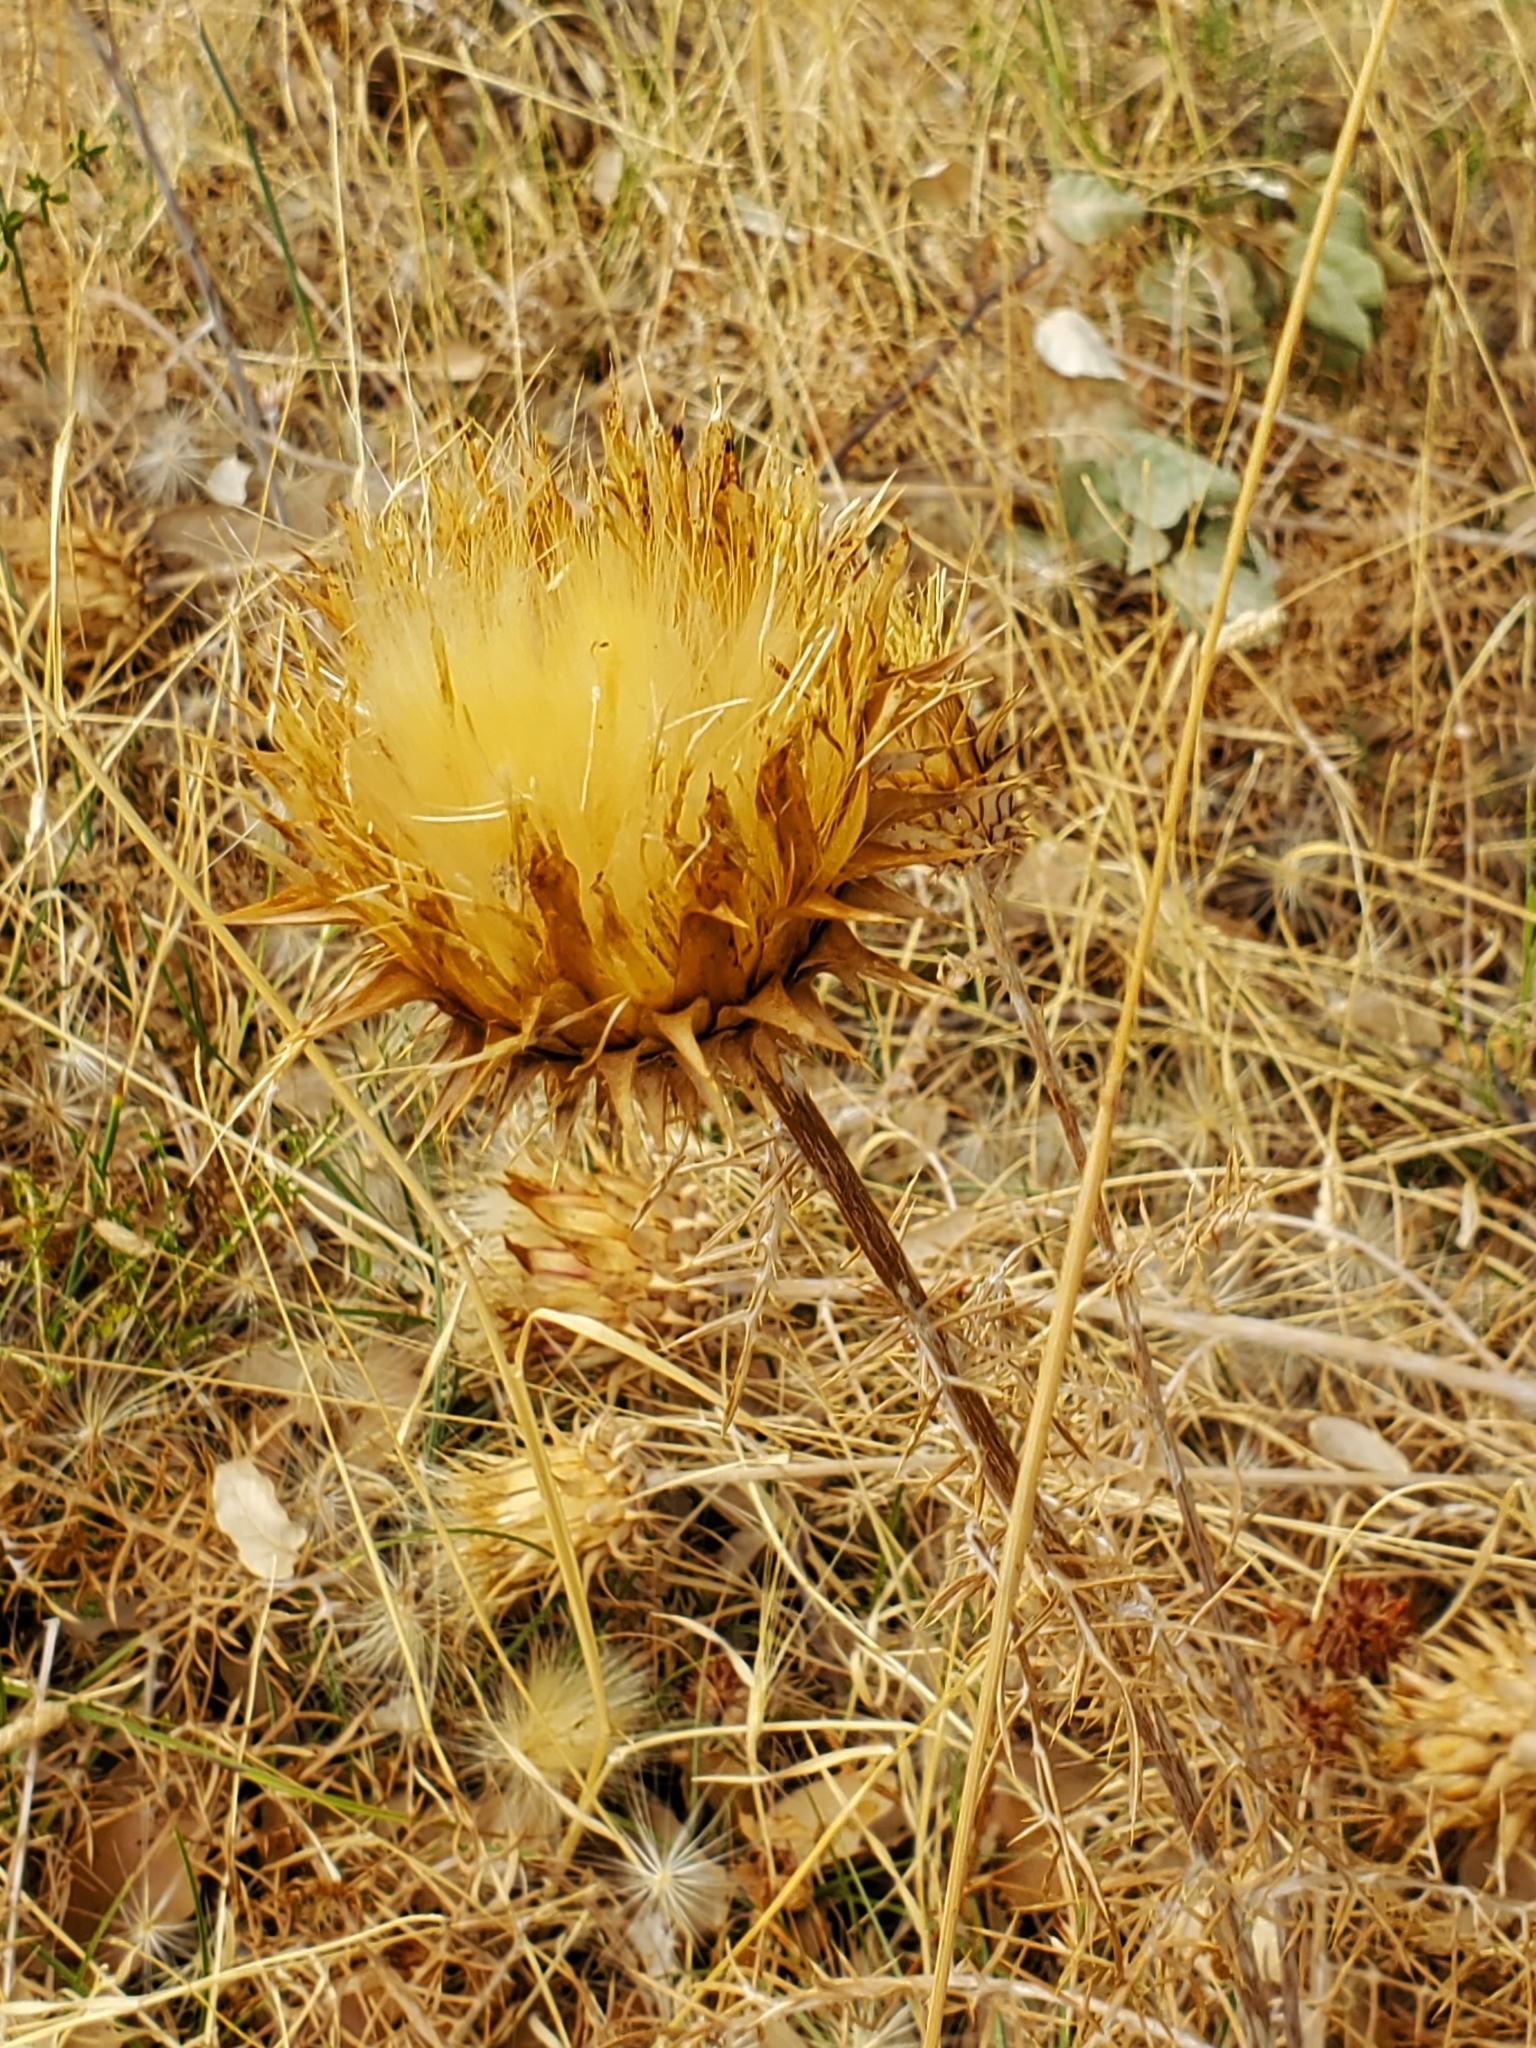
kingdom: Plantae
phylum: Tracheophyta
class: Magnoliopsida
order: Asterales
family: Asteraceae
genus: Cynara
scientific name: Cynara humilis
